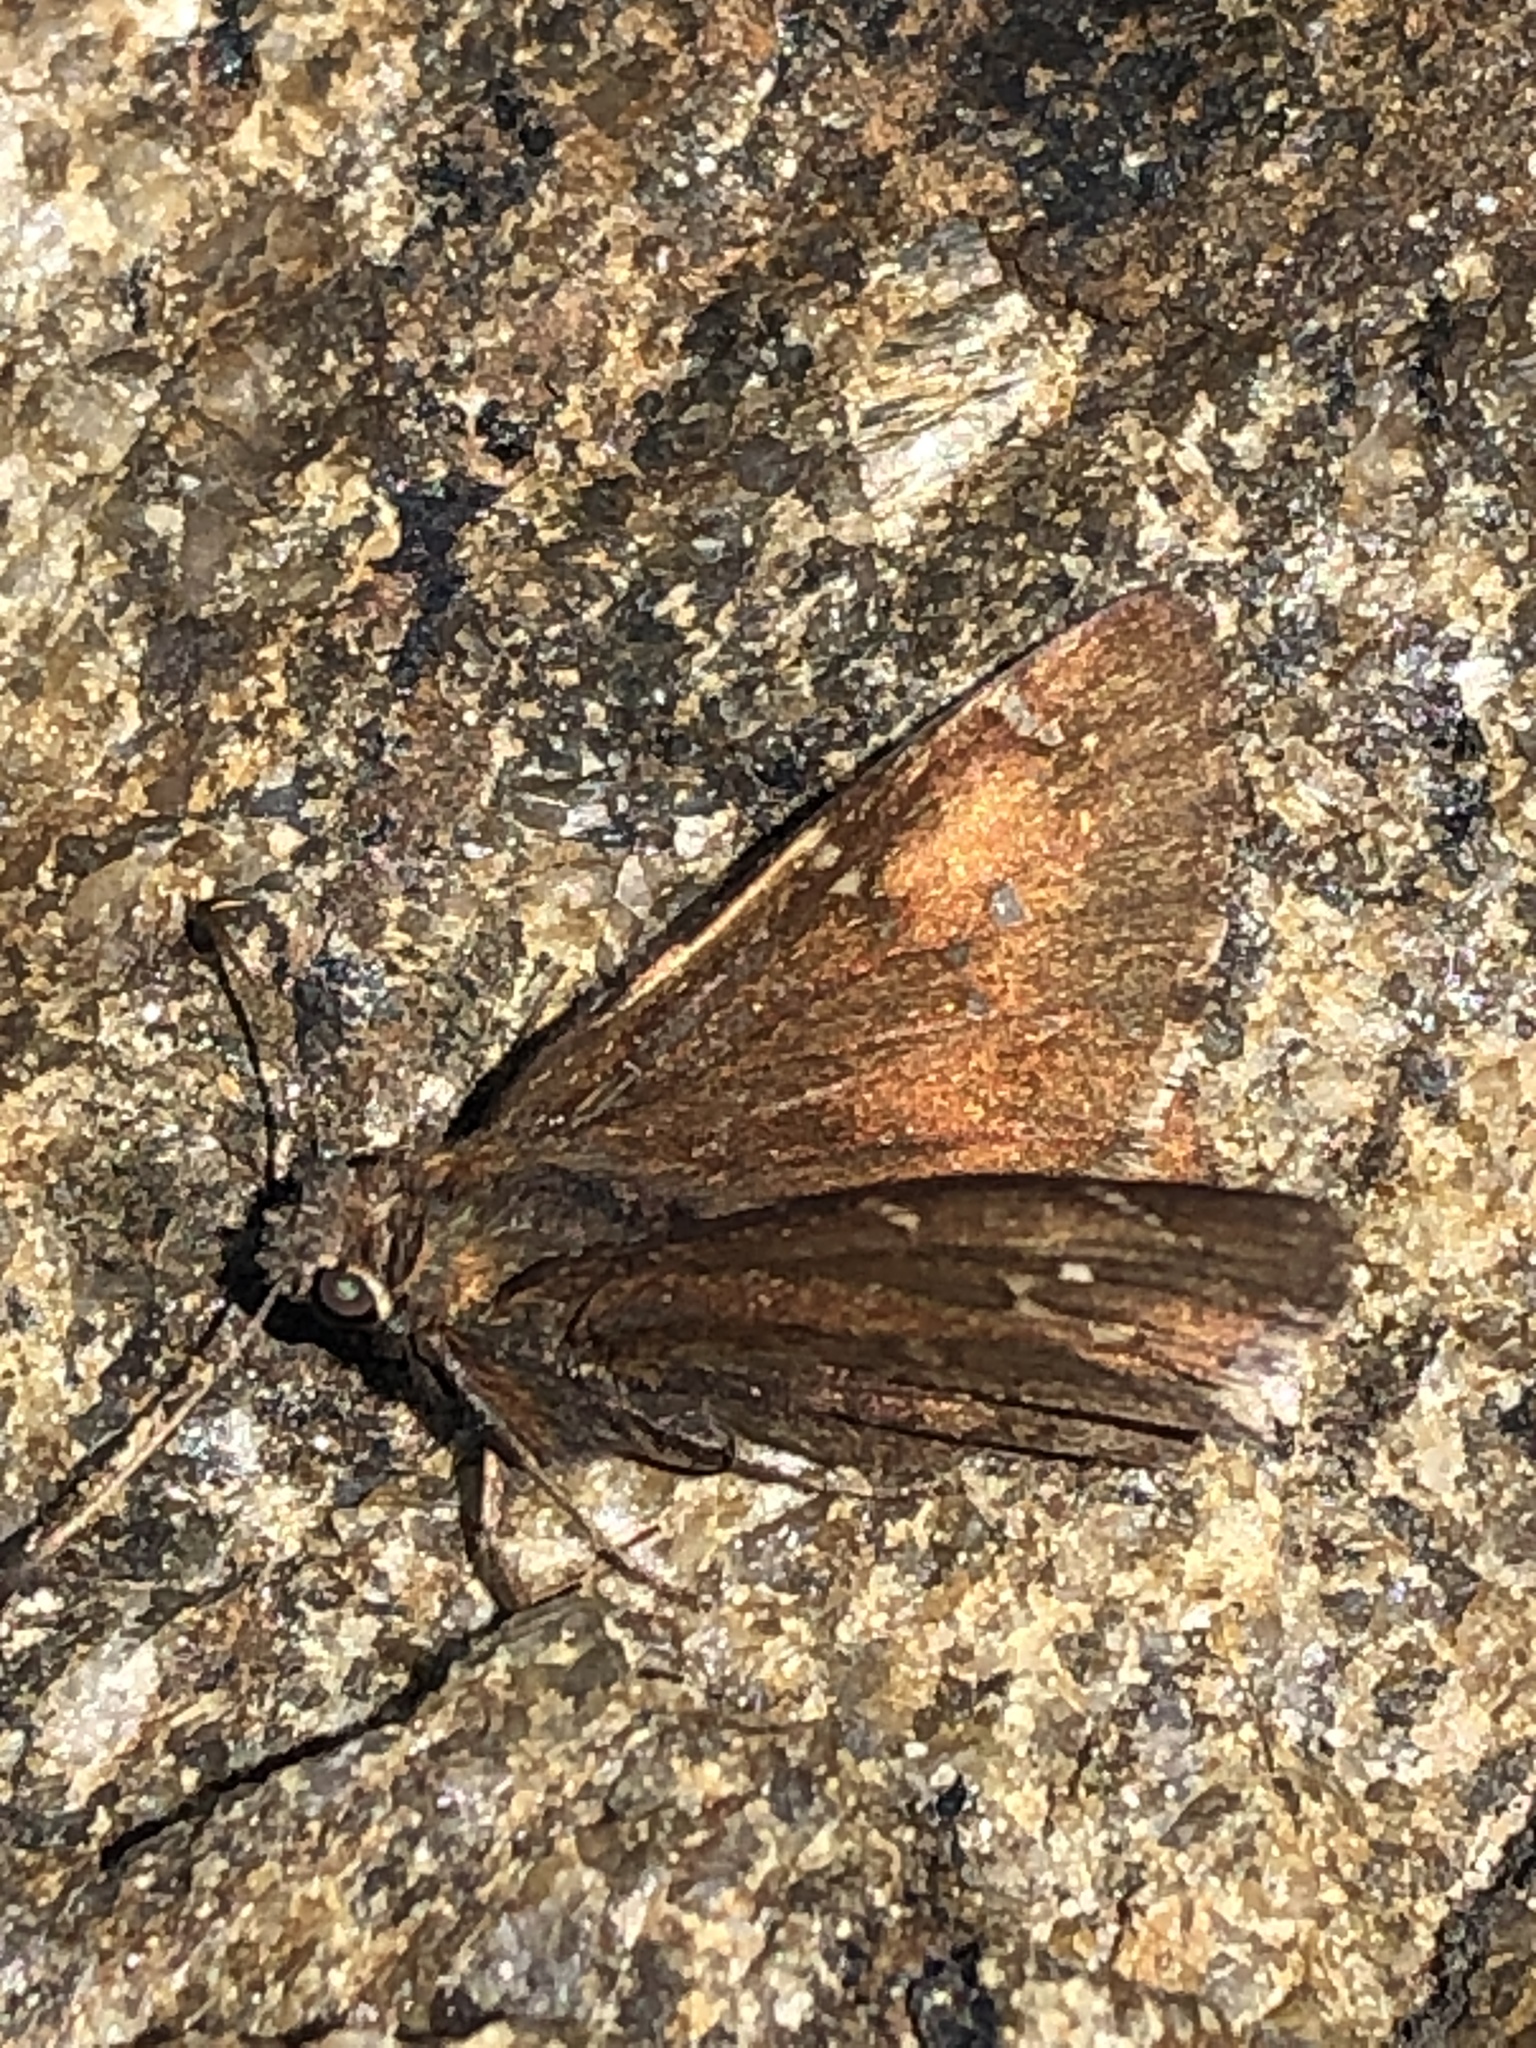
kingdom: Animalia
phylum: Arthropoda
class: Insecta
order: Lepidoptera
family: Hesperiidae
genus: Thorybes
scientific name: Thorybes pylades
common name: Northern cloudywing
